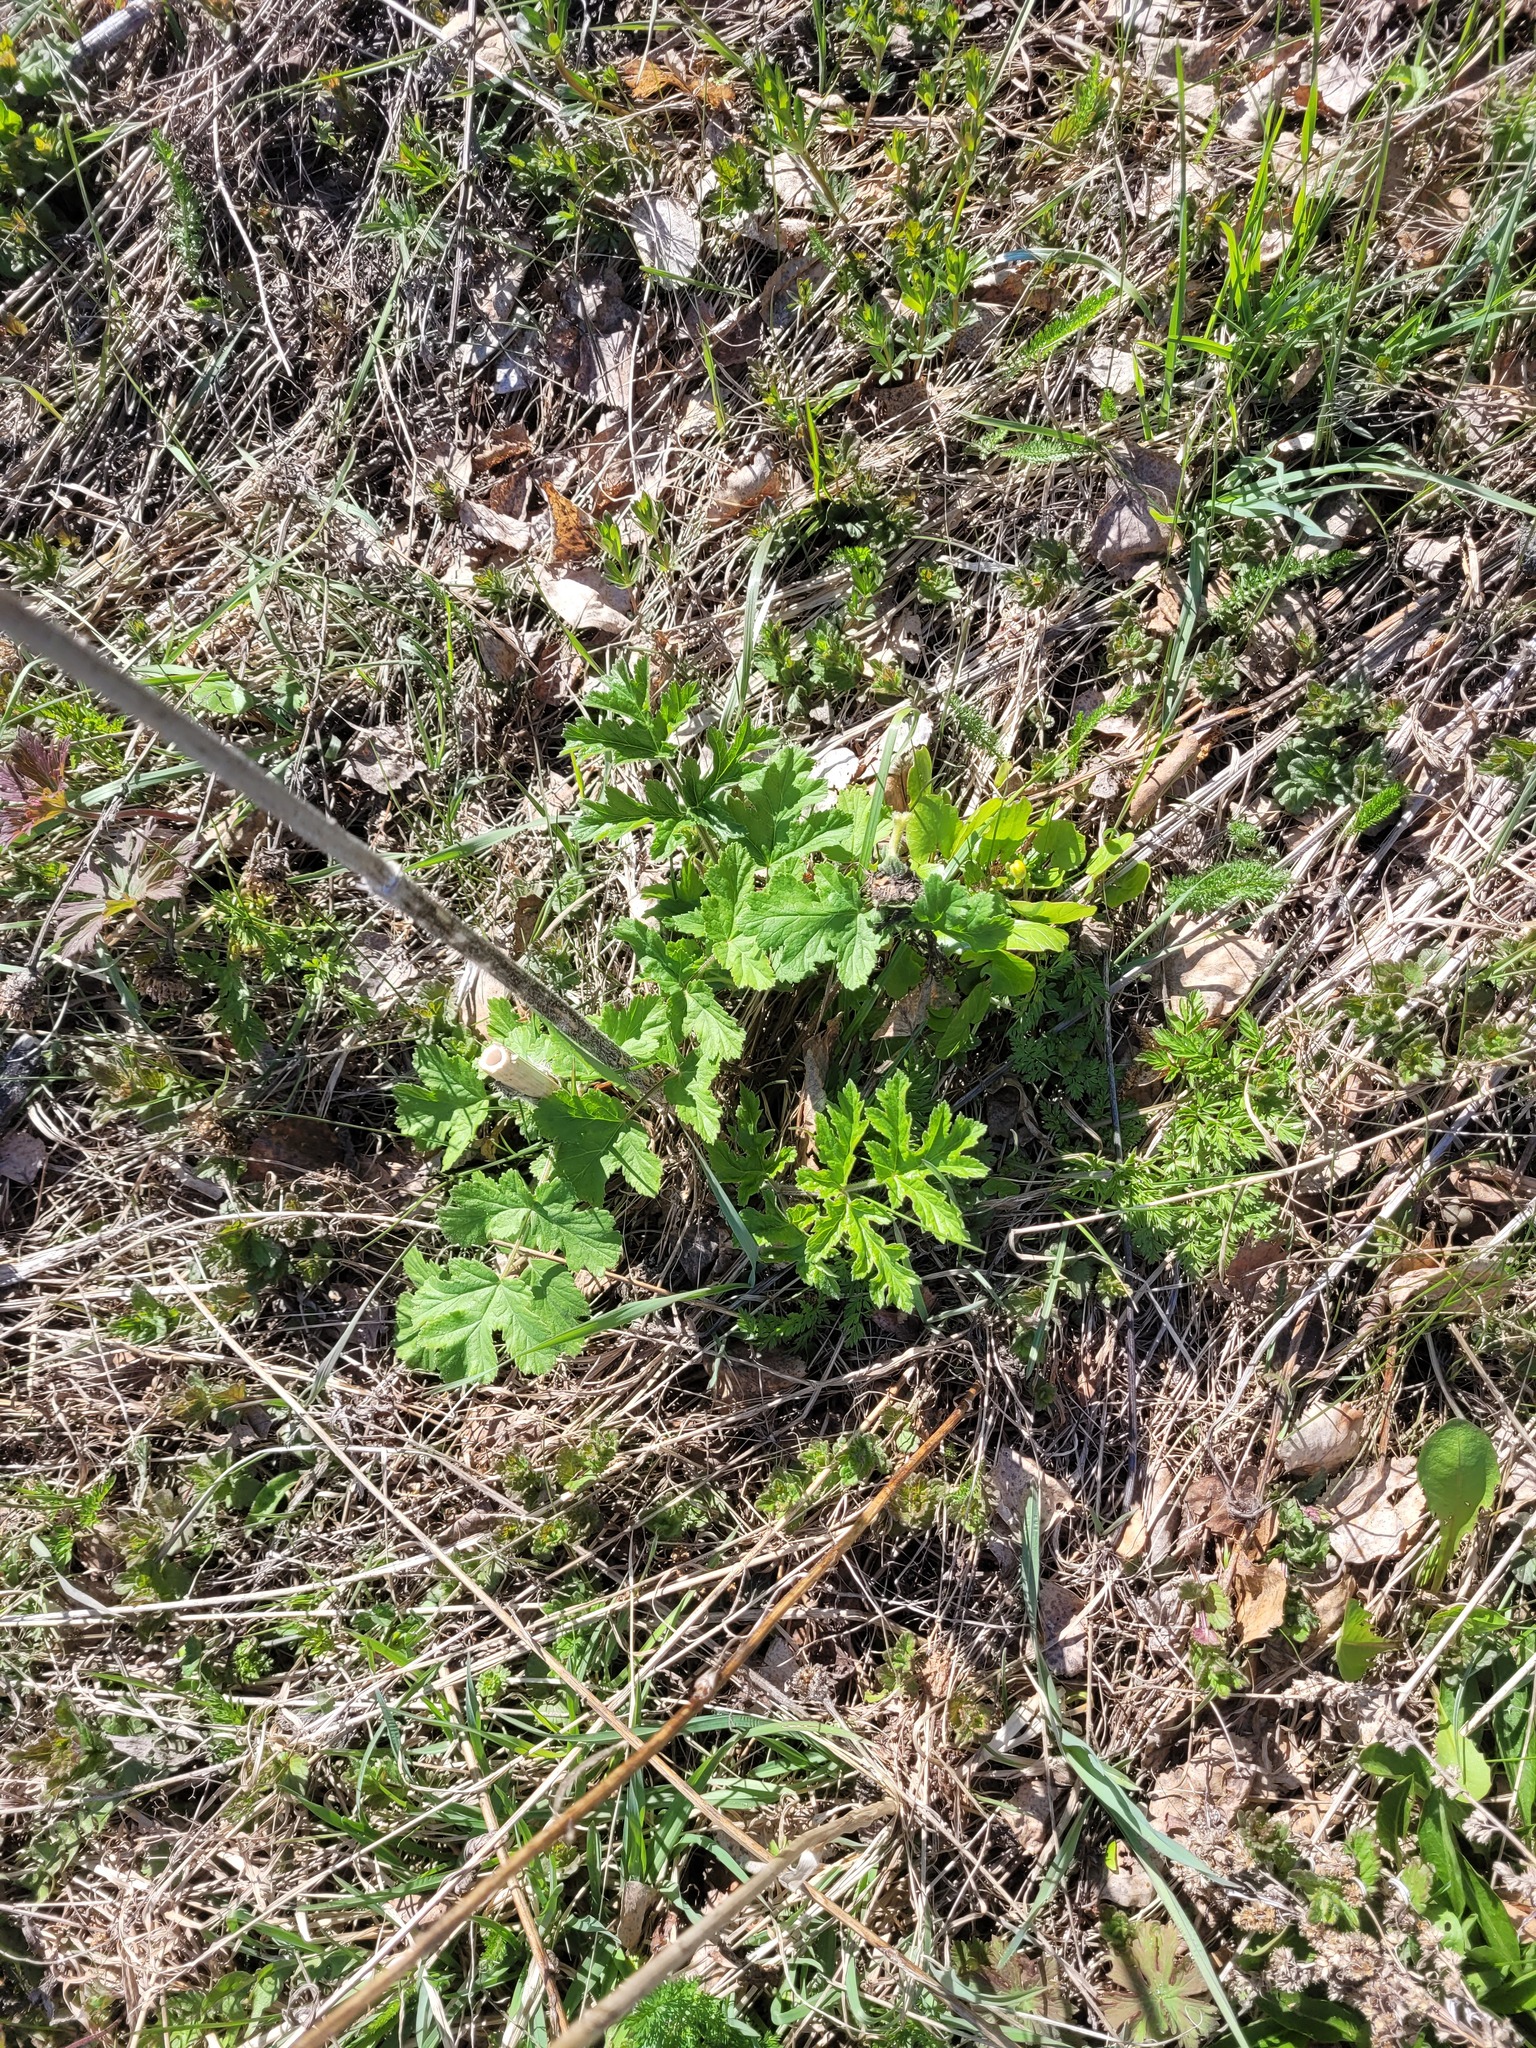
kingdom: Plantae
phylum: Tracheophyta
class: Magnoliopsida
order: Apiales
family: Apiaceae
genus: Heracleum
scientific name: Heracleum sphondylium
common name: Hogweed
